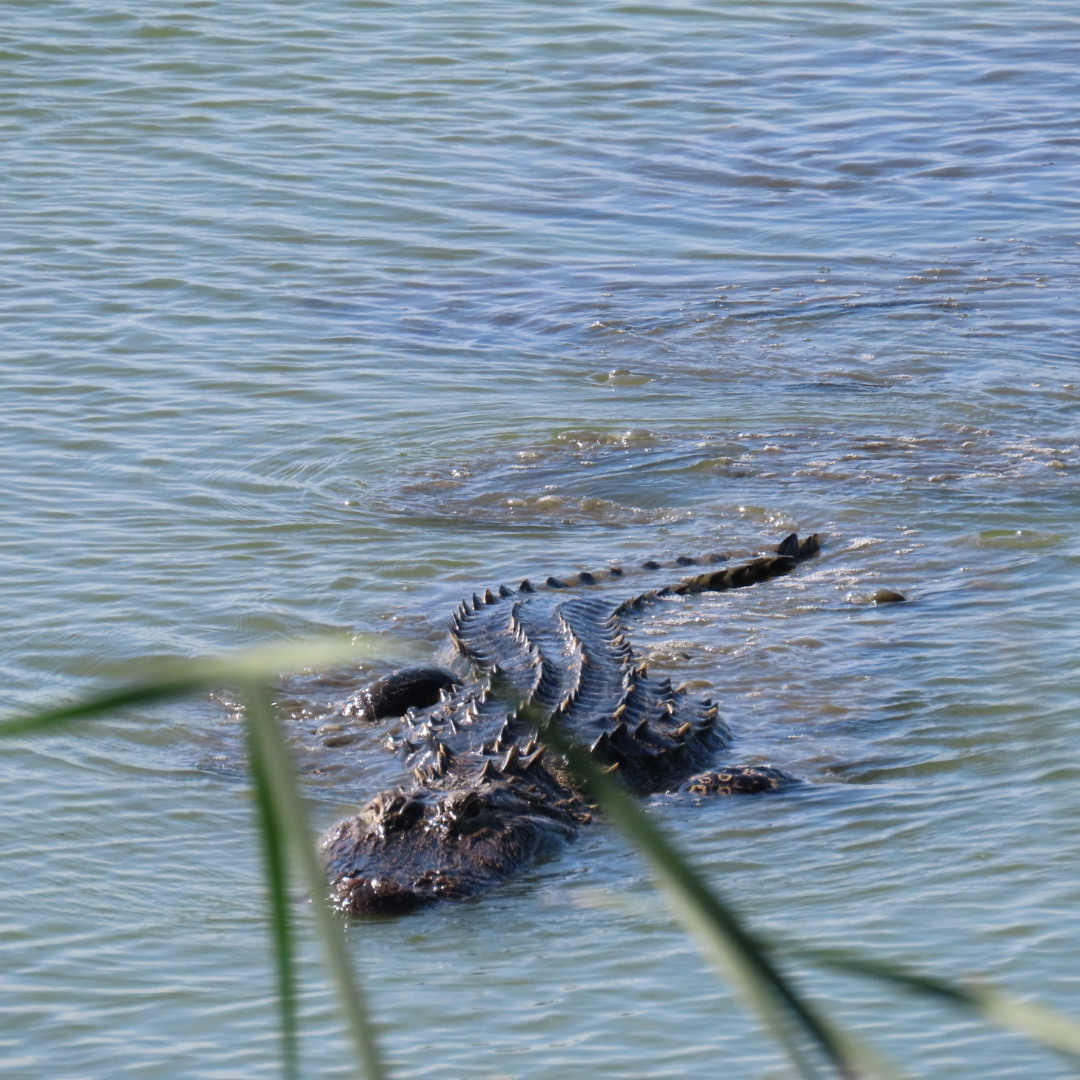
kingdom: Animalia
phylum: Chordata
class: Crocodylia
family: Alligatoridae
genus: Alligator
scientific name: Alligator mississippiensis
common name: American alligator
